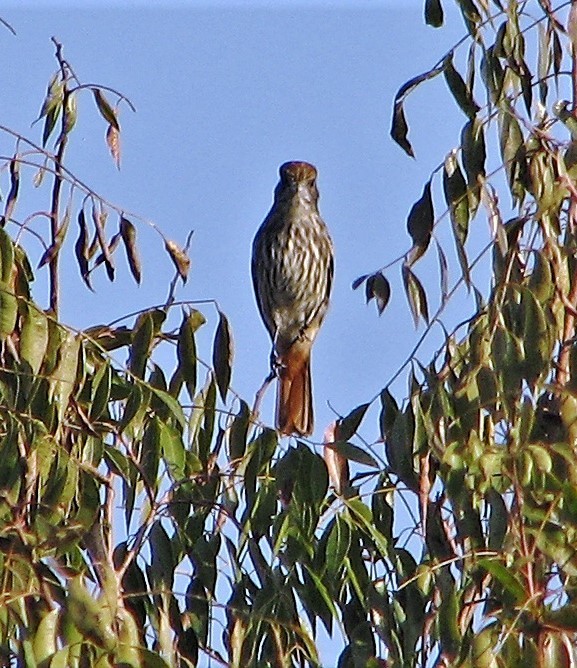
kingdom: Animalia
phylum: Chordata
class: Aves
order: Passeriformes
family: Tyrannidae
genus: Knipolegus
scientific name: Knipolegus cyanirostris
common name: Blue-billed black tyrant
